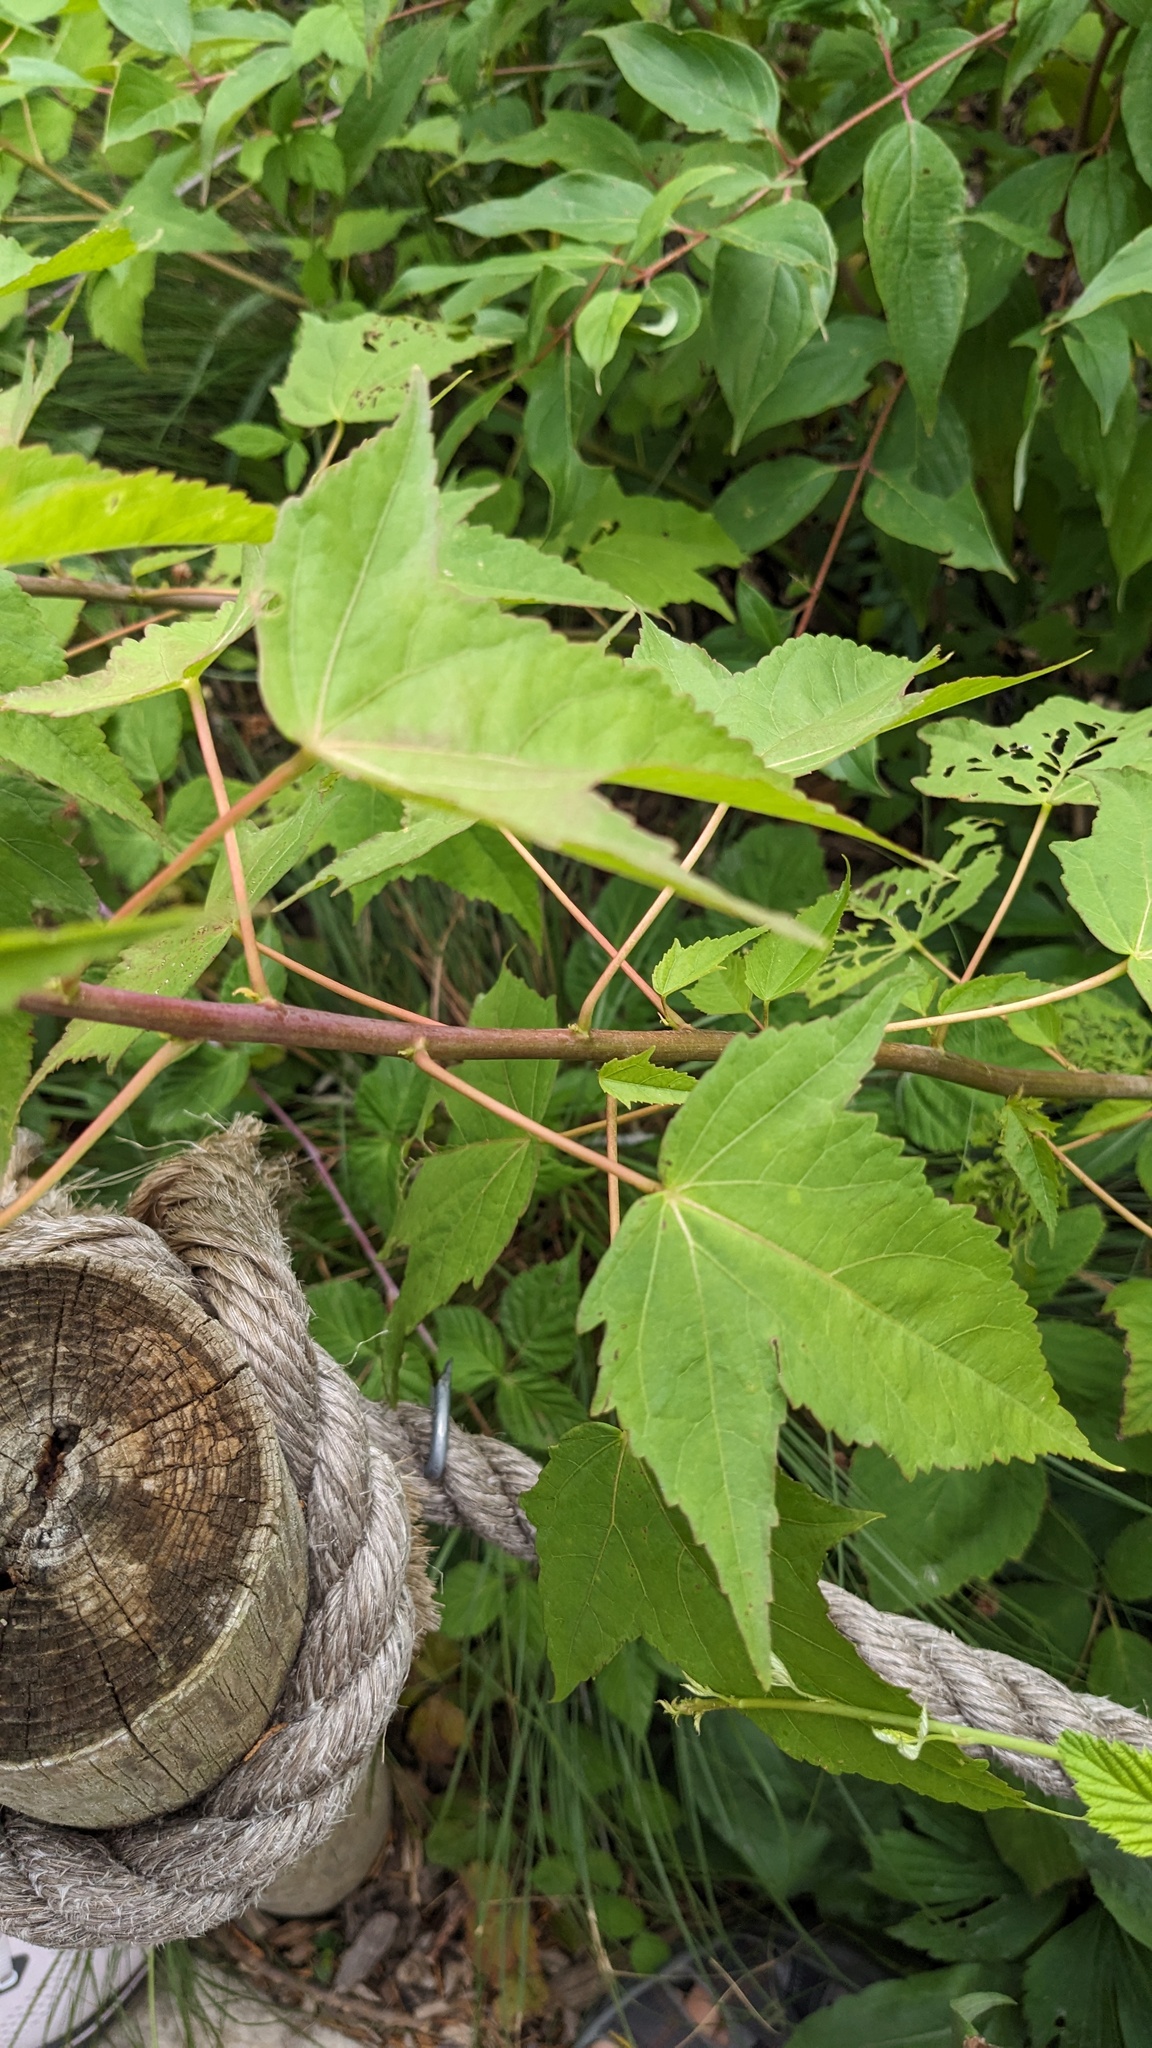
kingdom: Plantae
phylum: Tracheophyta
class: Magnoliopsida
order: Malvales
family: Malvaceae
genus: Hibiscus
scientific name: Hibiscus laevis
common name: Scarlet rose-mallow
